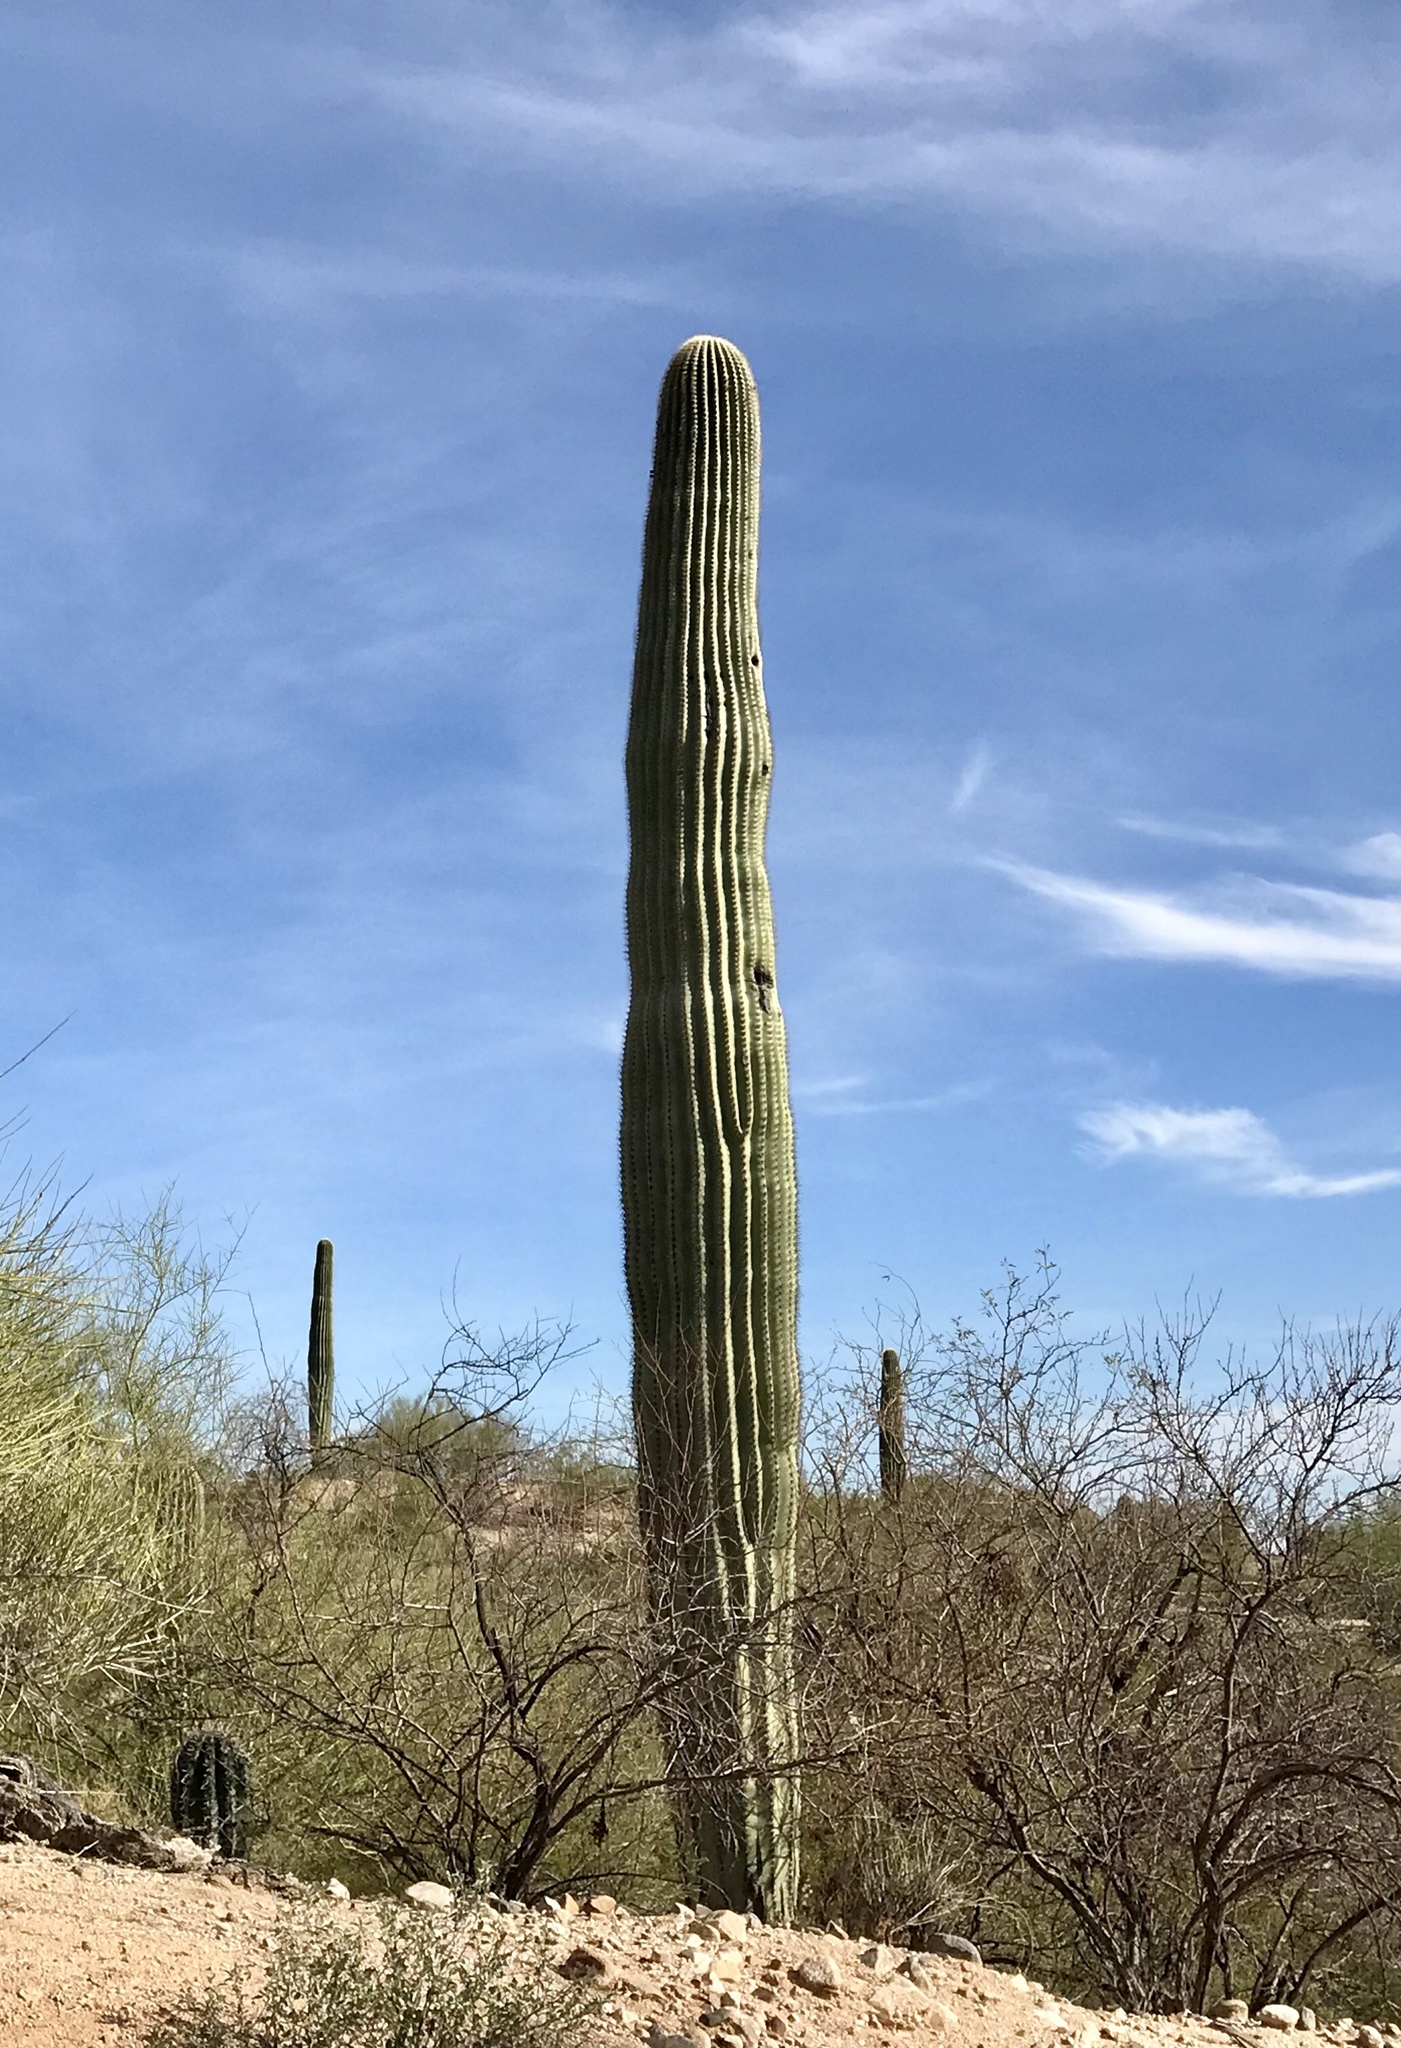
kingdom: Plantae
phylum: Tracheophyta
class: Magnoliopsida
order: Caryophyllales
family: Cactaceae
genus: Carnegiea
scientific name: Carnegiea gigantea
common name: Saguaro
